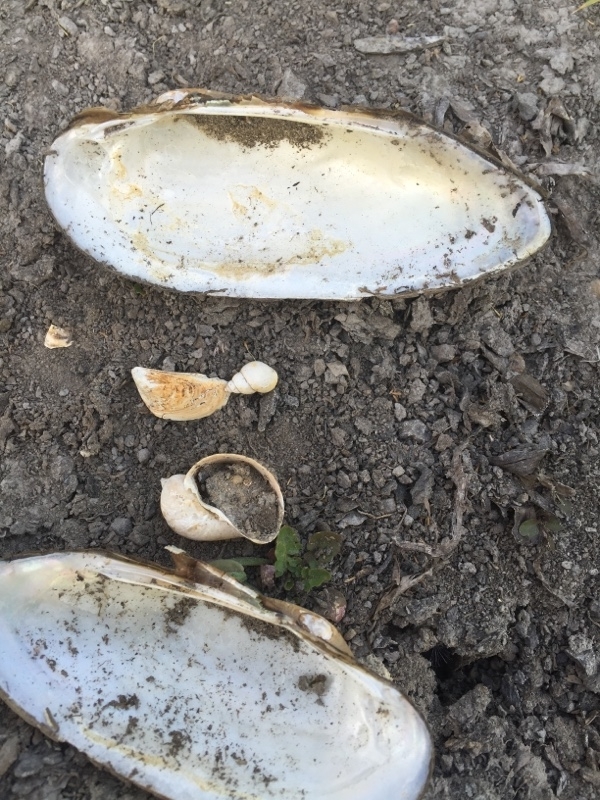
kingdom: Animalia
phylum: Mollusca
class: Bivalvia
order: Unionida
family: Unionidae
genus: Unio
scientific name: Unio pictorum
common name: Painter's mussel
